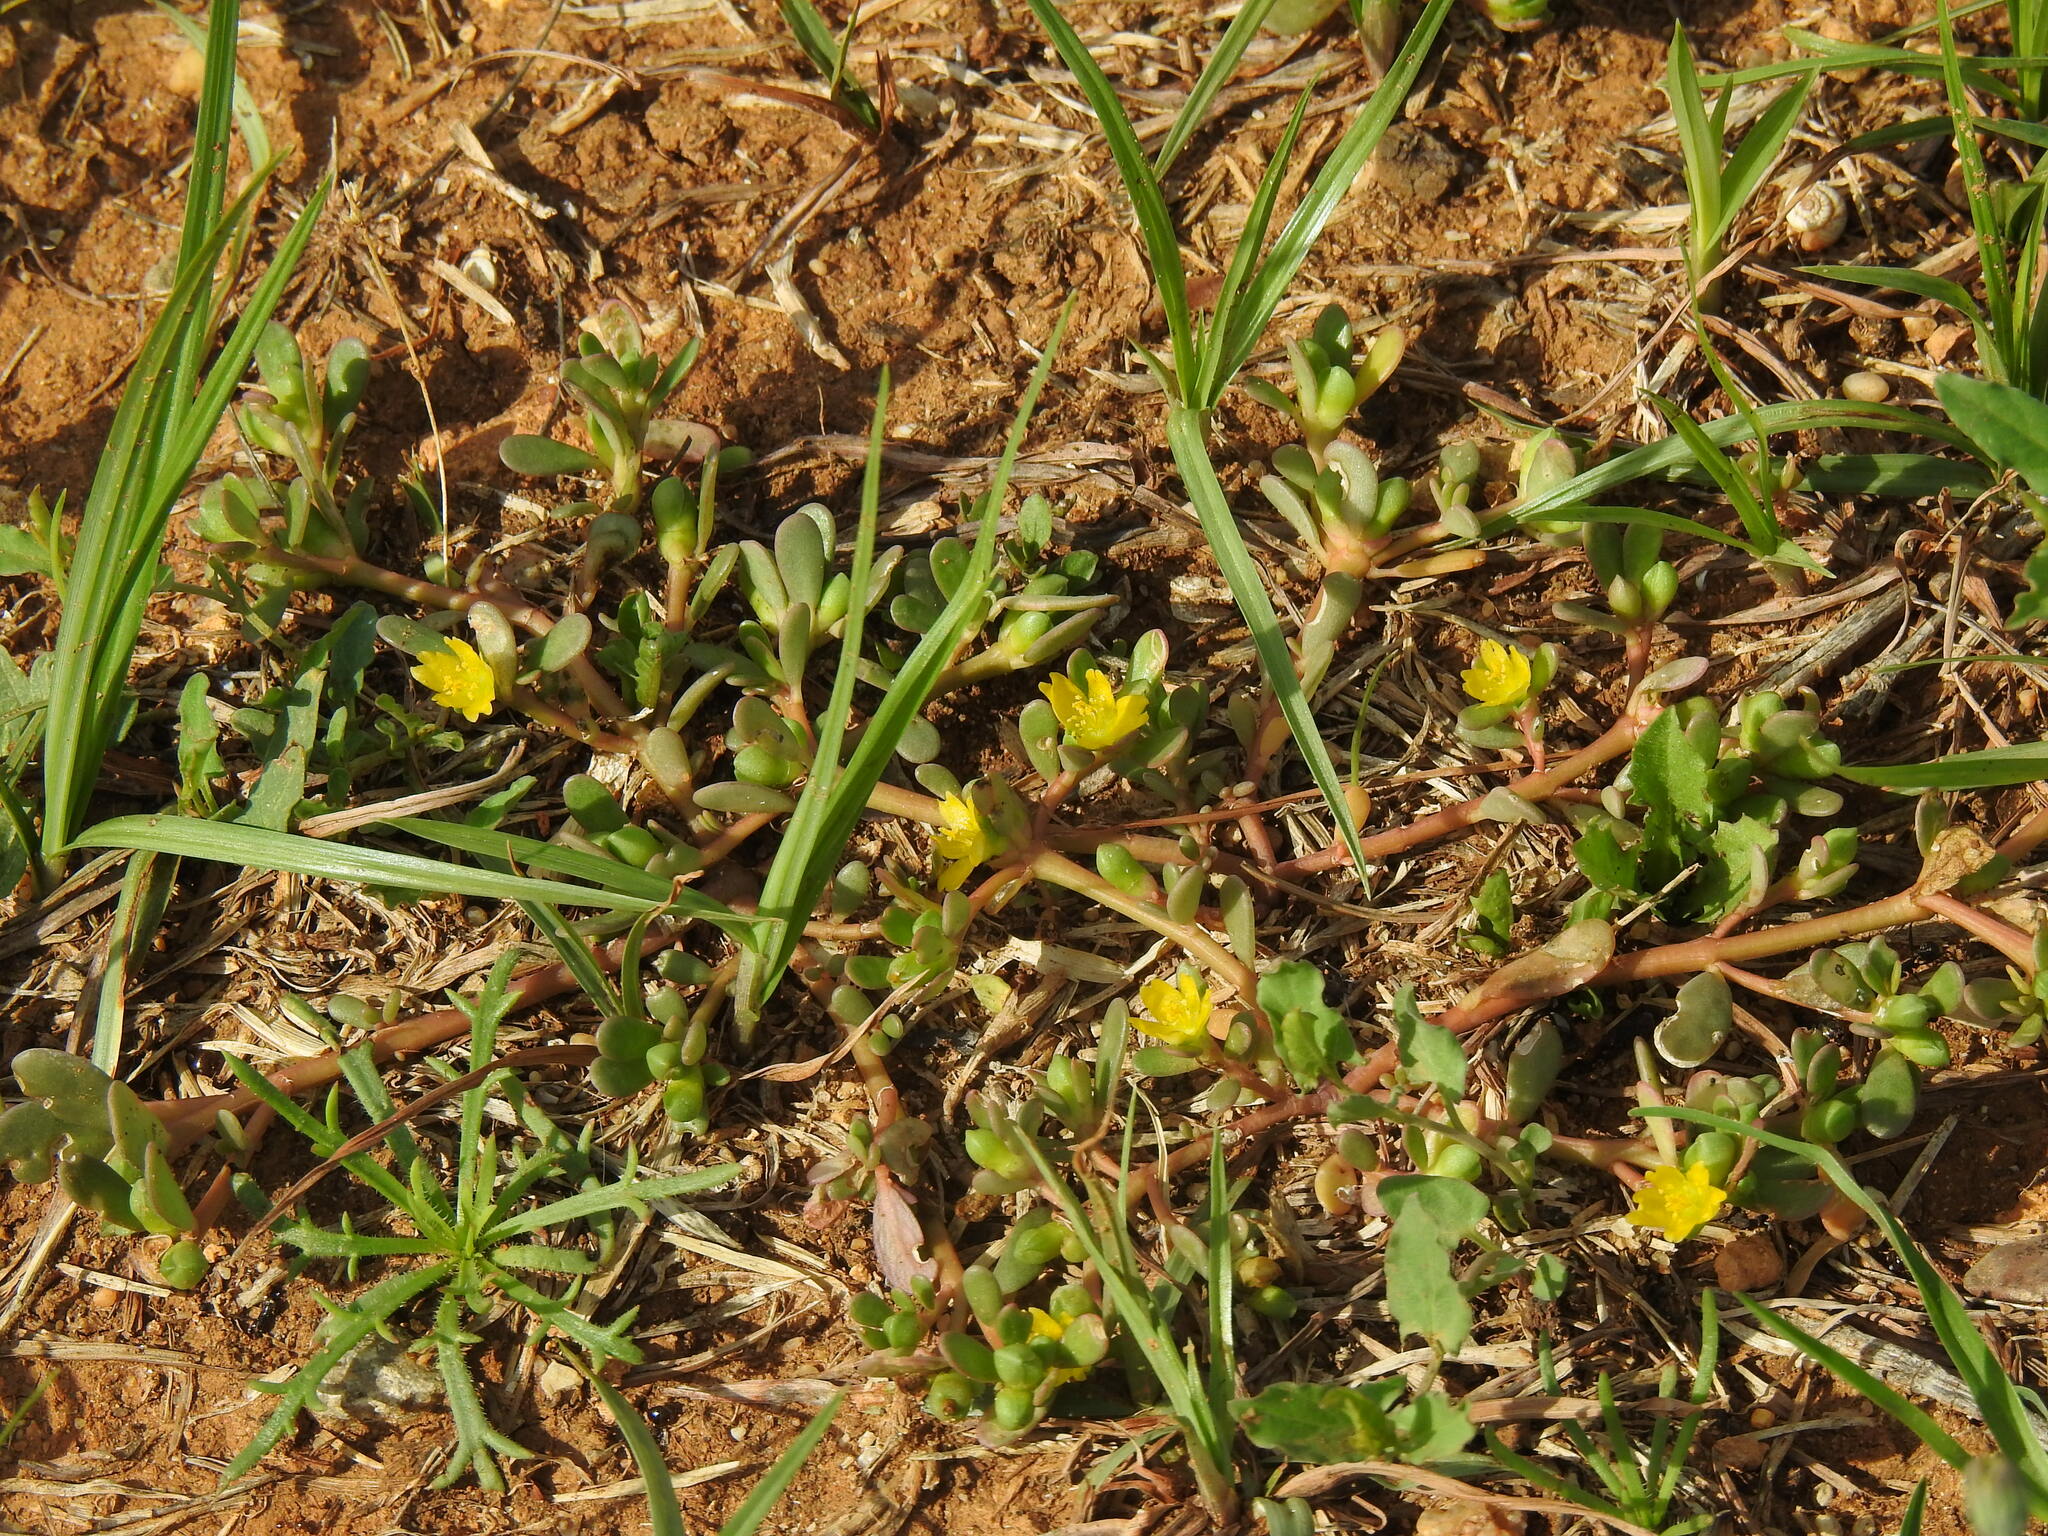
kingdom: Plantae
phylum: Tracheophyta
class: Magnoliopsida
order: Caryophyllales
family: Portulacaceae
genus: Portulaca
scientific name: Portulaca oleracea
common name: Common purslane
